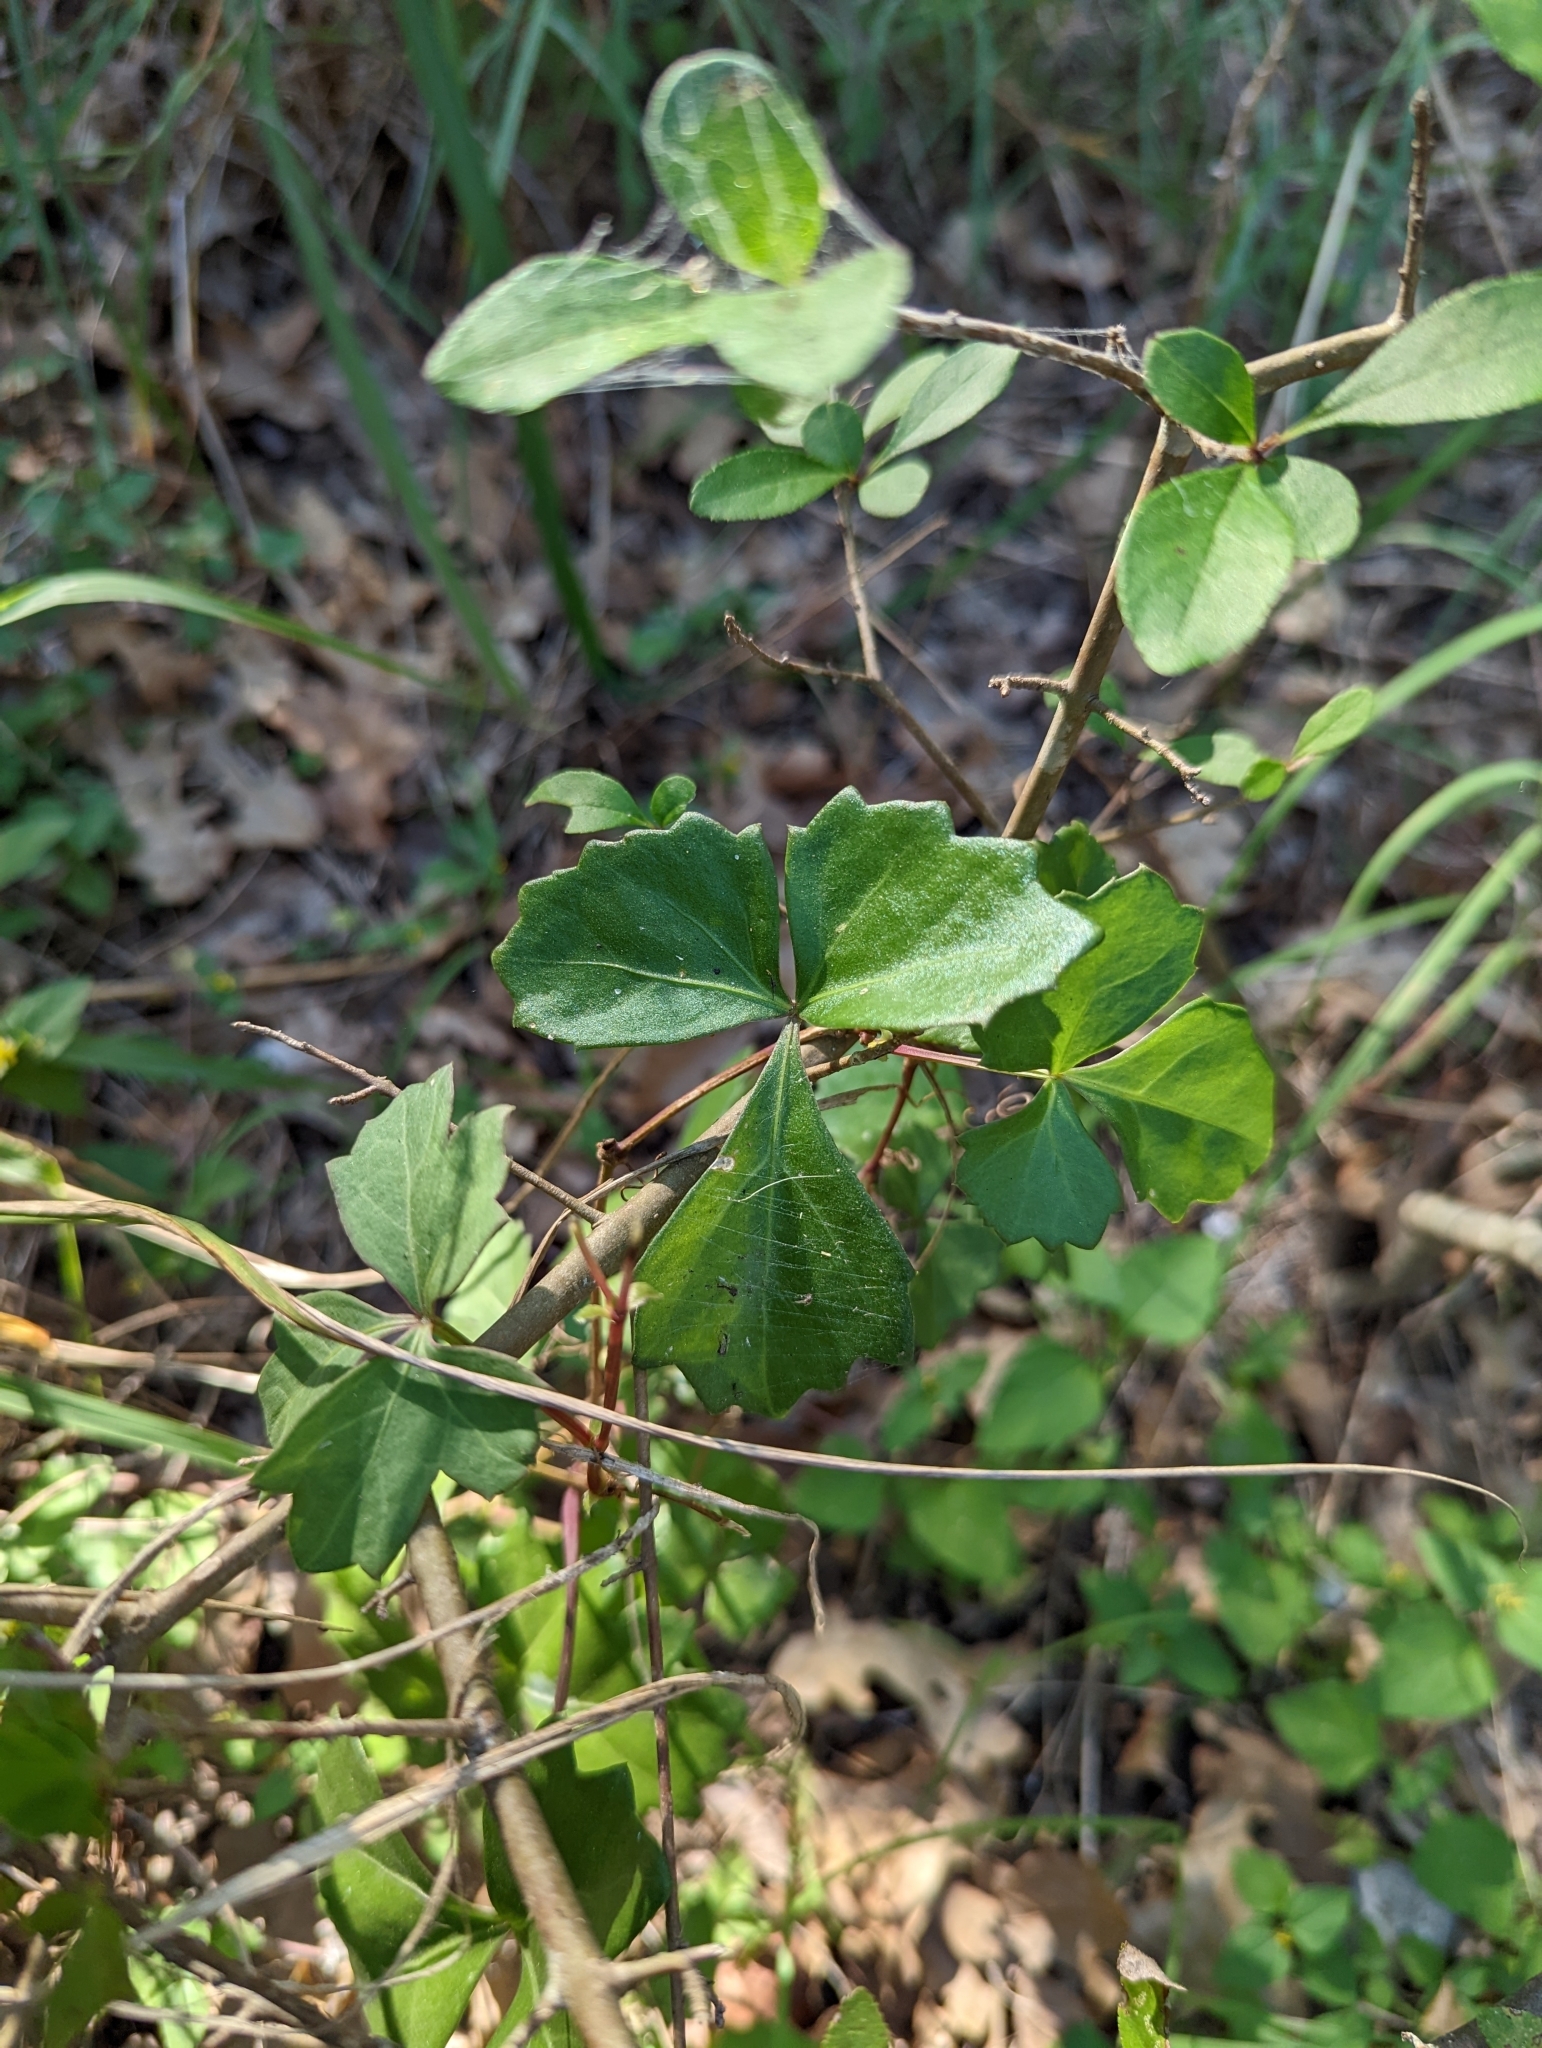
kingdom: Plantae
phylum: Tracheophyta
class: Magnoliopsida
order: Vitales
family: Vitaceae
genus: Cissus
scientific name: Cissus trifoliata
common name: Vine-sorrel
